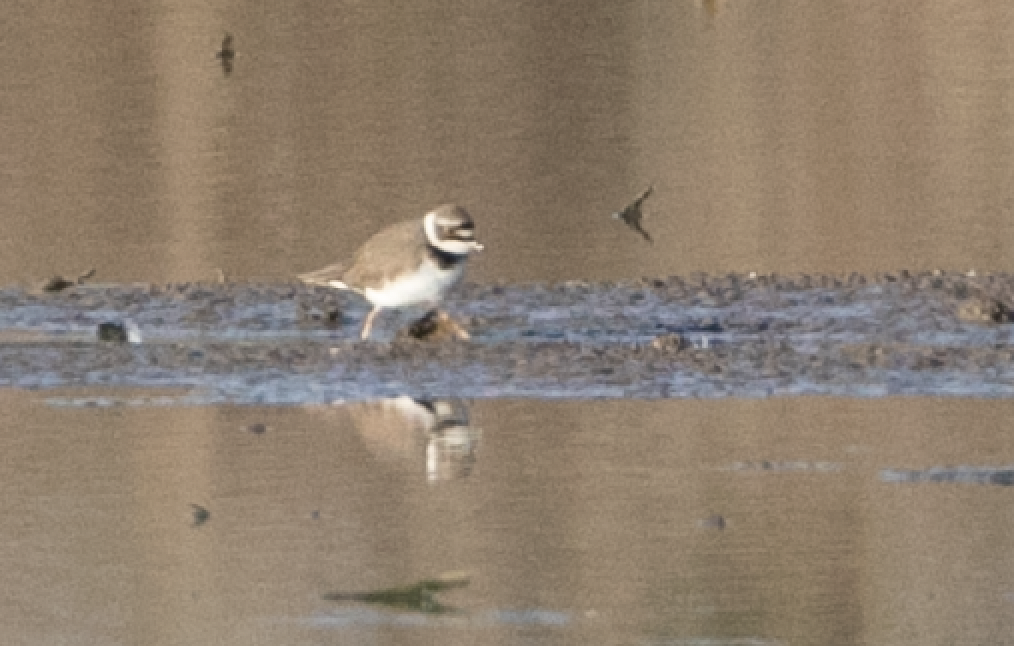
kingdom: Animalia
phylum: Chordata
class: Aves
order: Charadriiformes
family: Charadriidae
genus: Charadrius
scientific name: Charadrius dubius
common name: Little ringed plover
